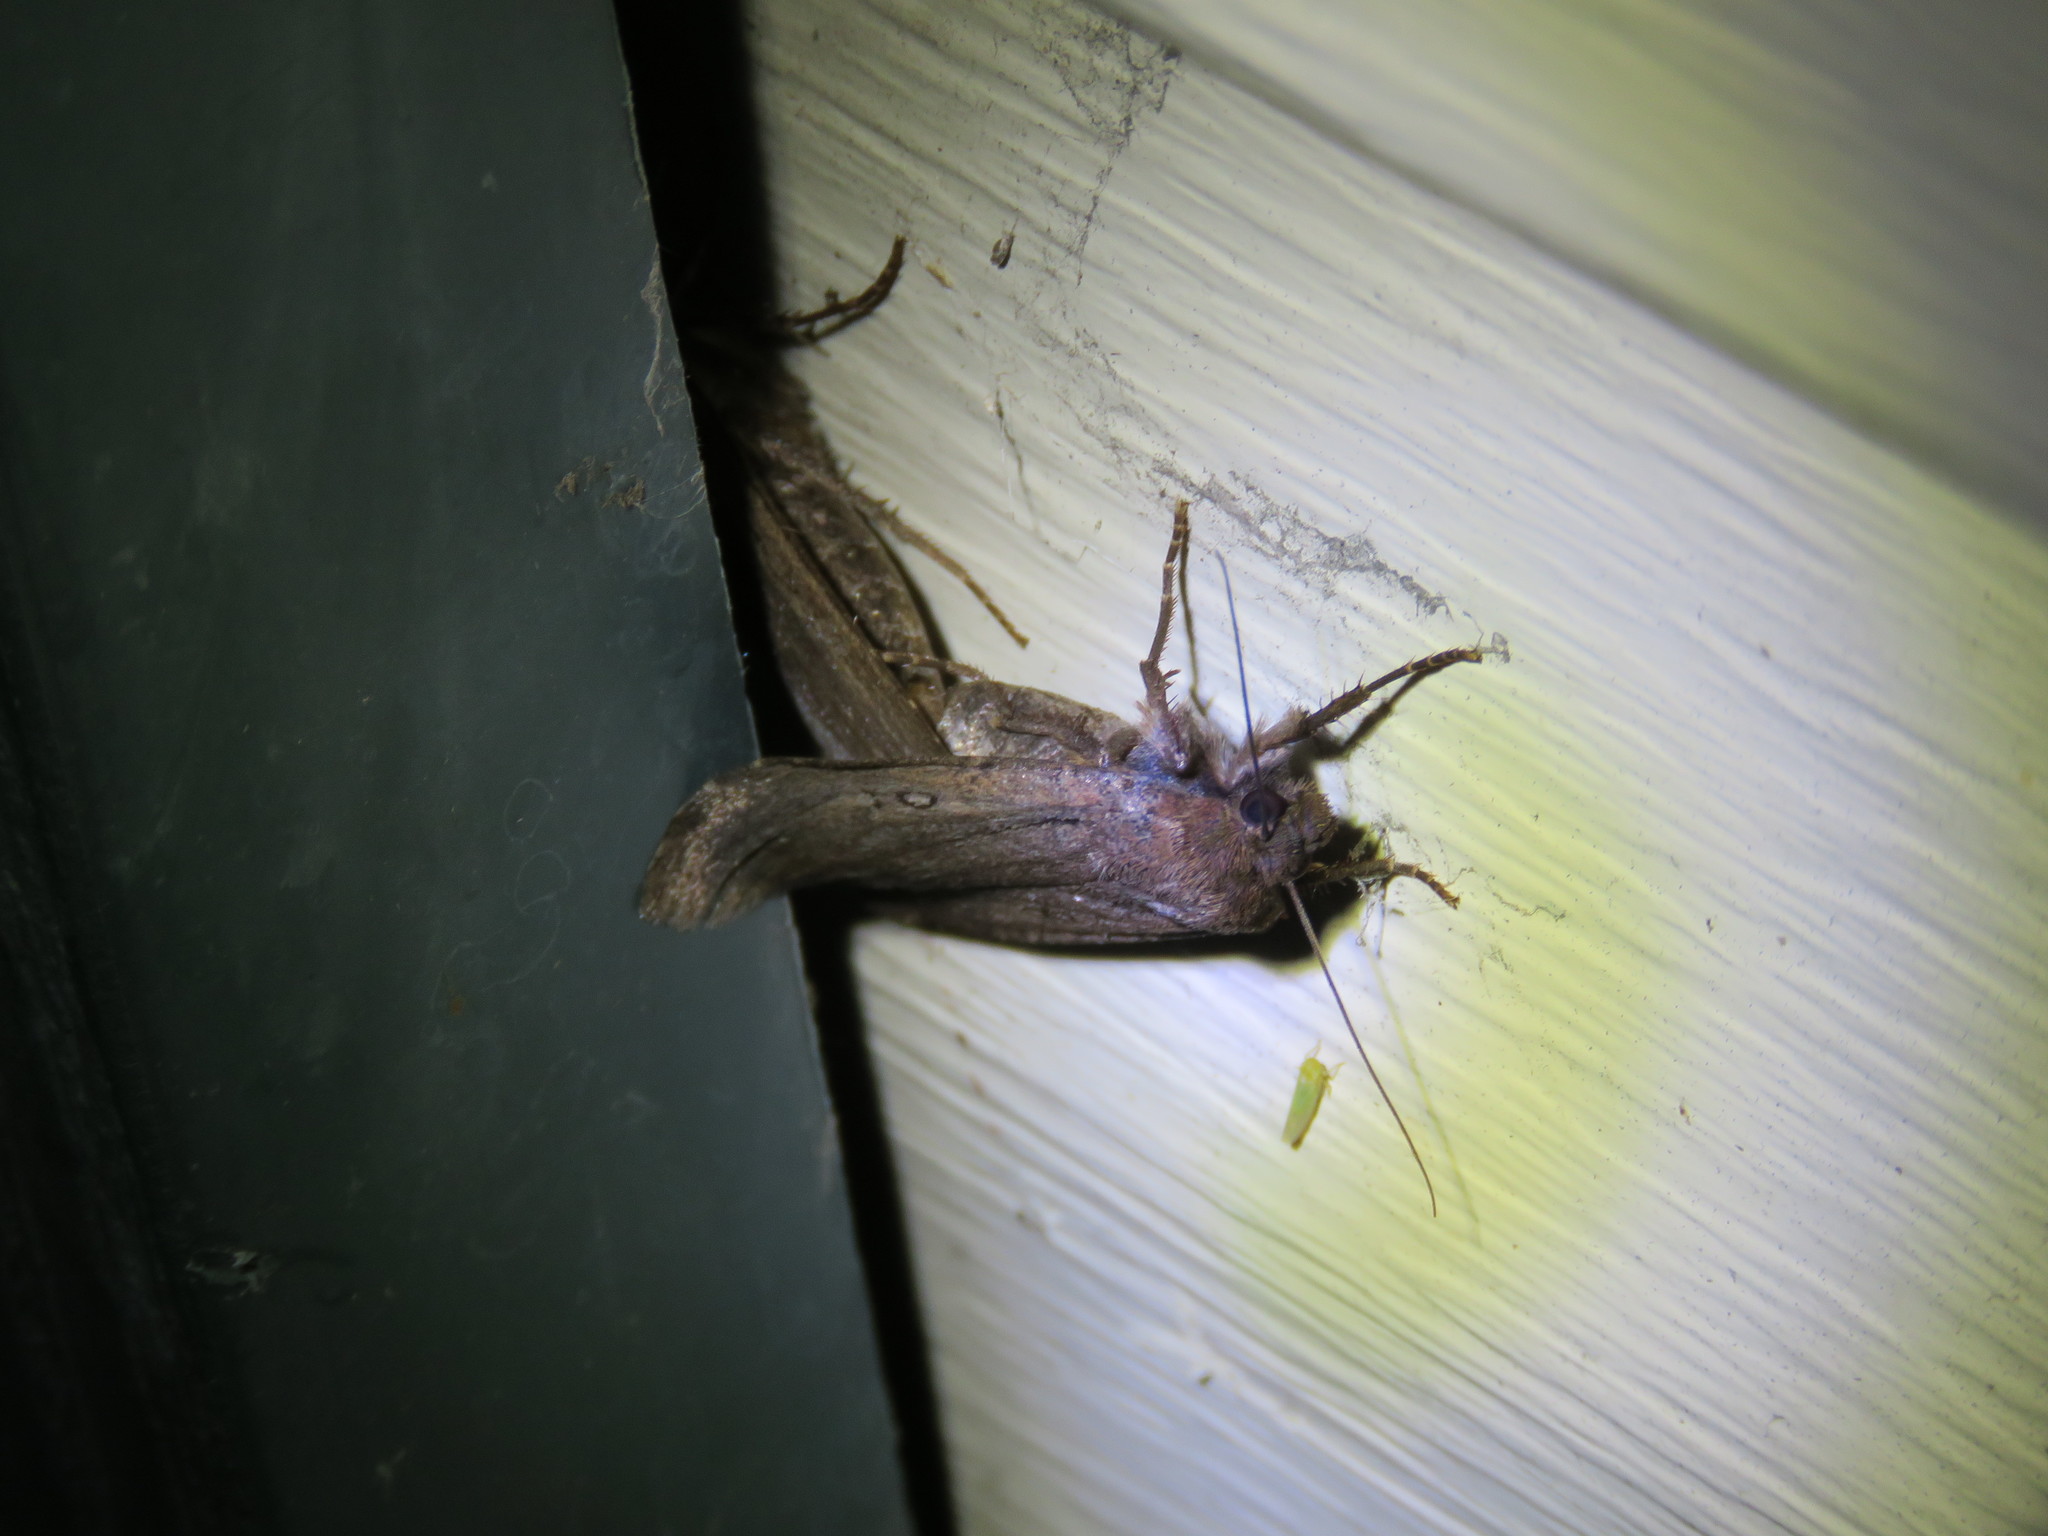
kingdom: Animalia
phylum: Arthropoda
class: Insecta
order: Lepidoptera
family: Noctuidae
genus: Spaelotis
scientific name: Spaelotis clandestina
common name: Clandestine dart
